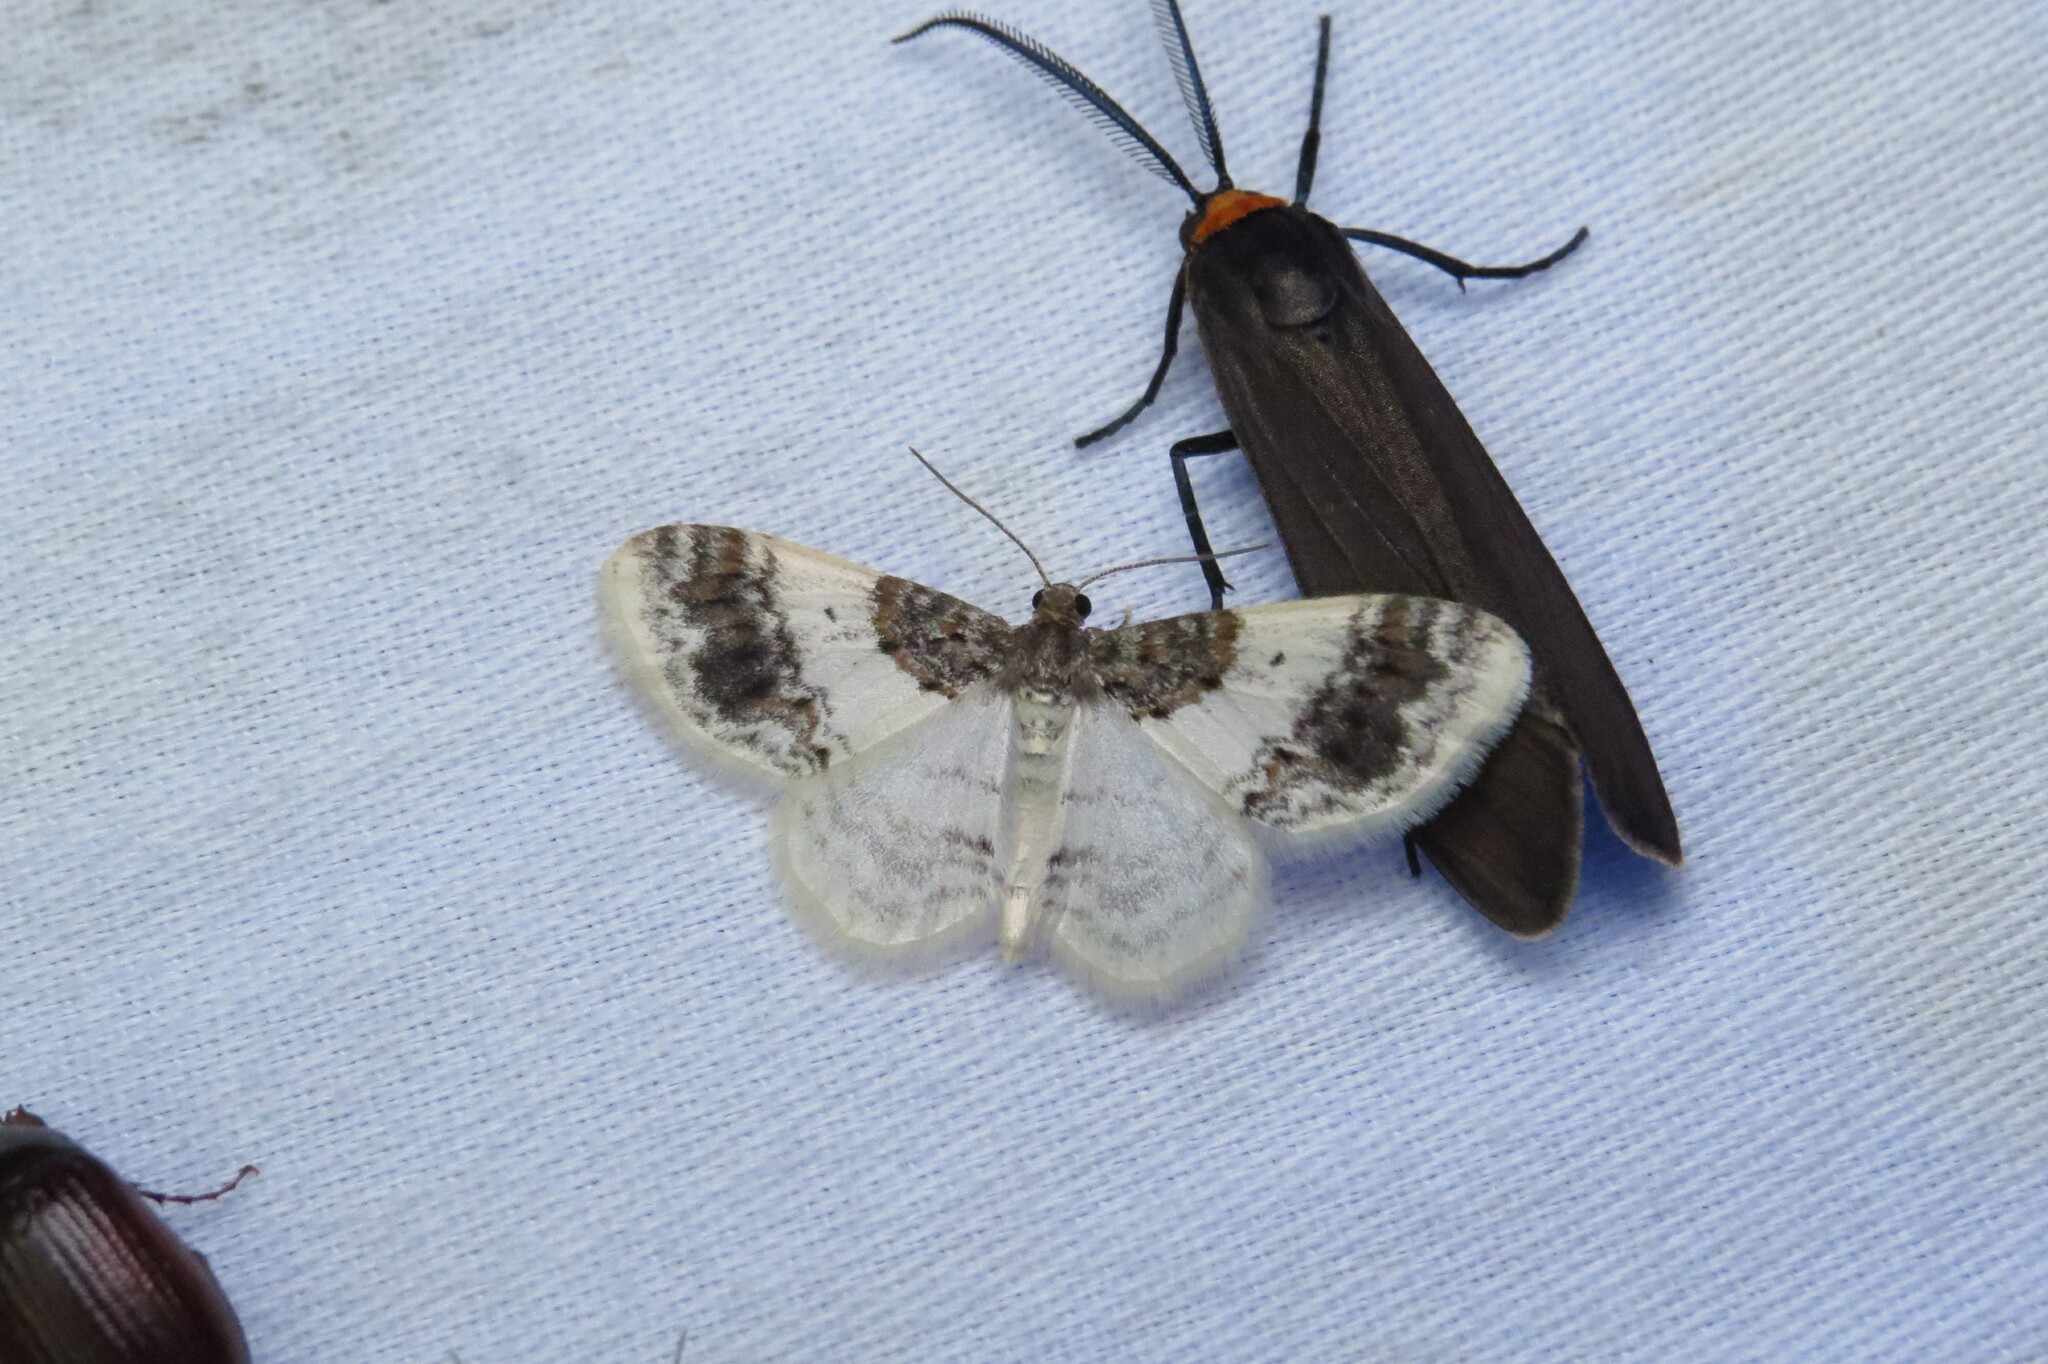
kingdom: Animalia
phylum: Arthropoda
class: Insecta
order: Lepidoptera
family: Geometridae
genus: Hydrelia
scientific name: Hydrelia condensata
